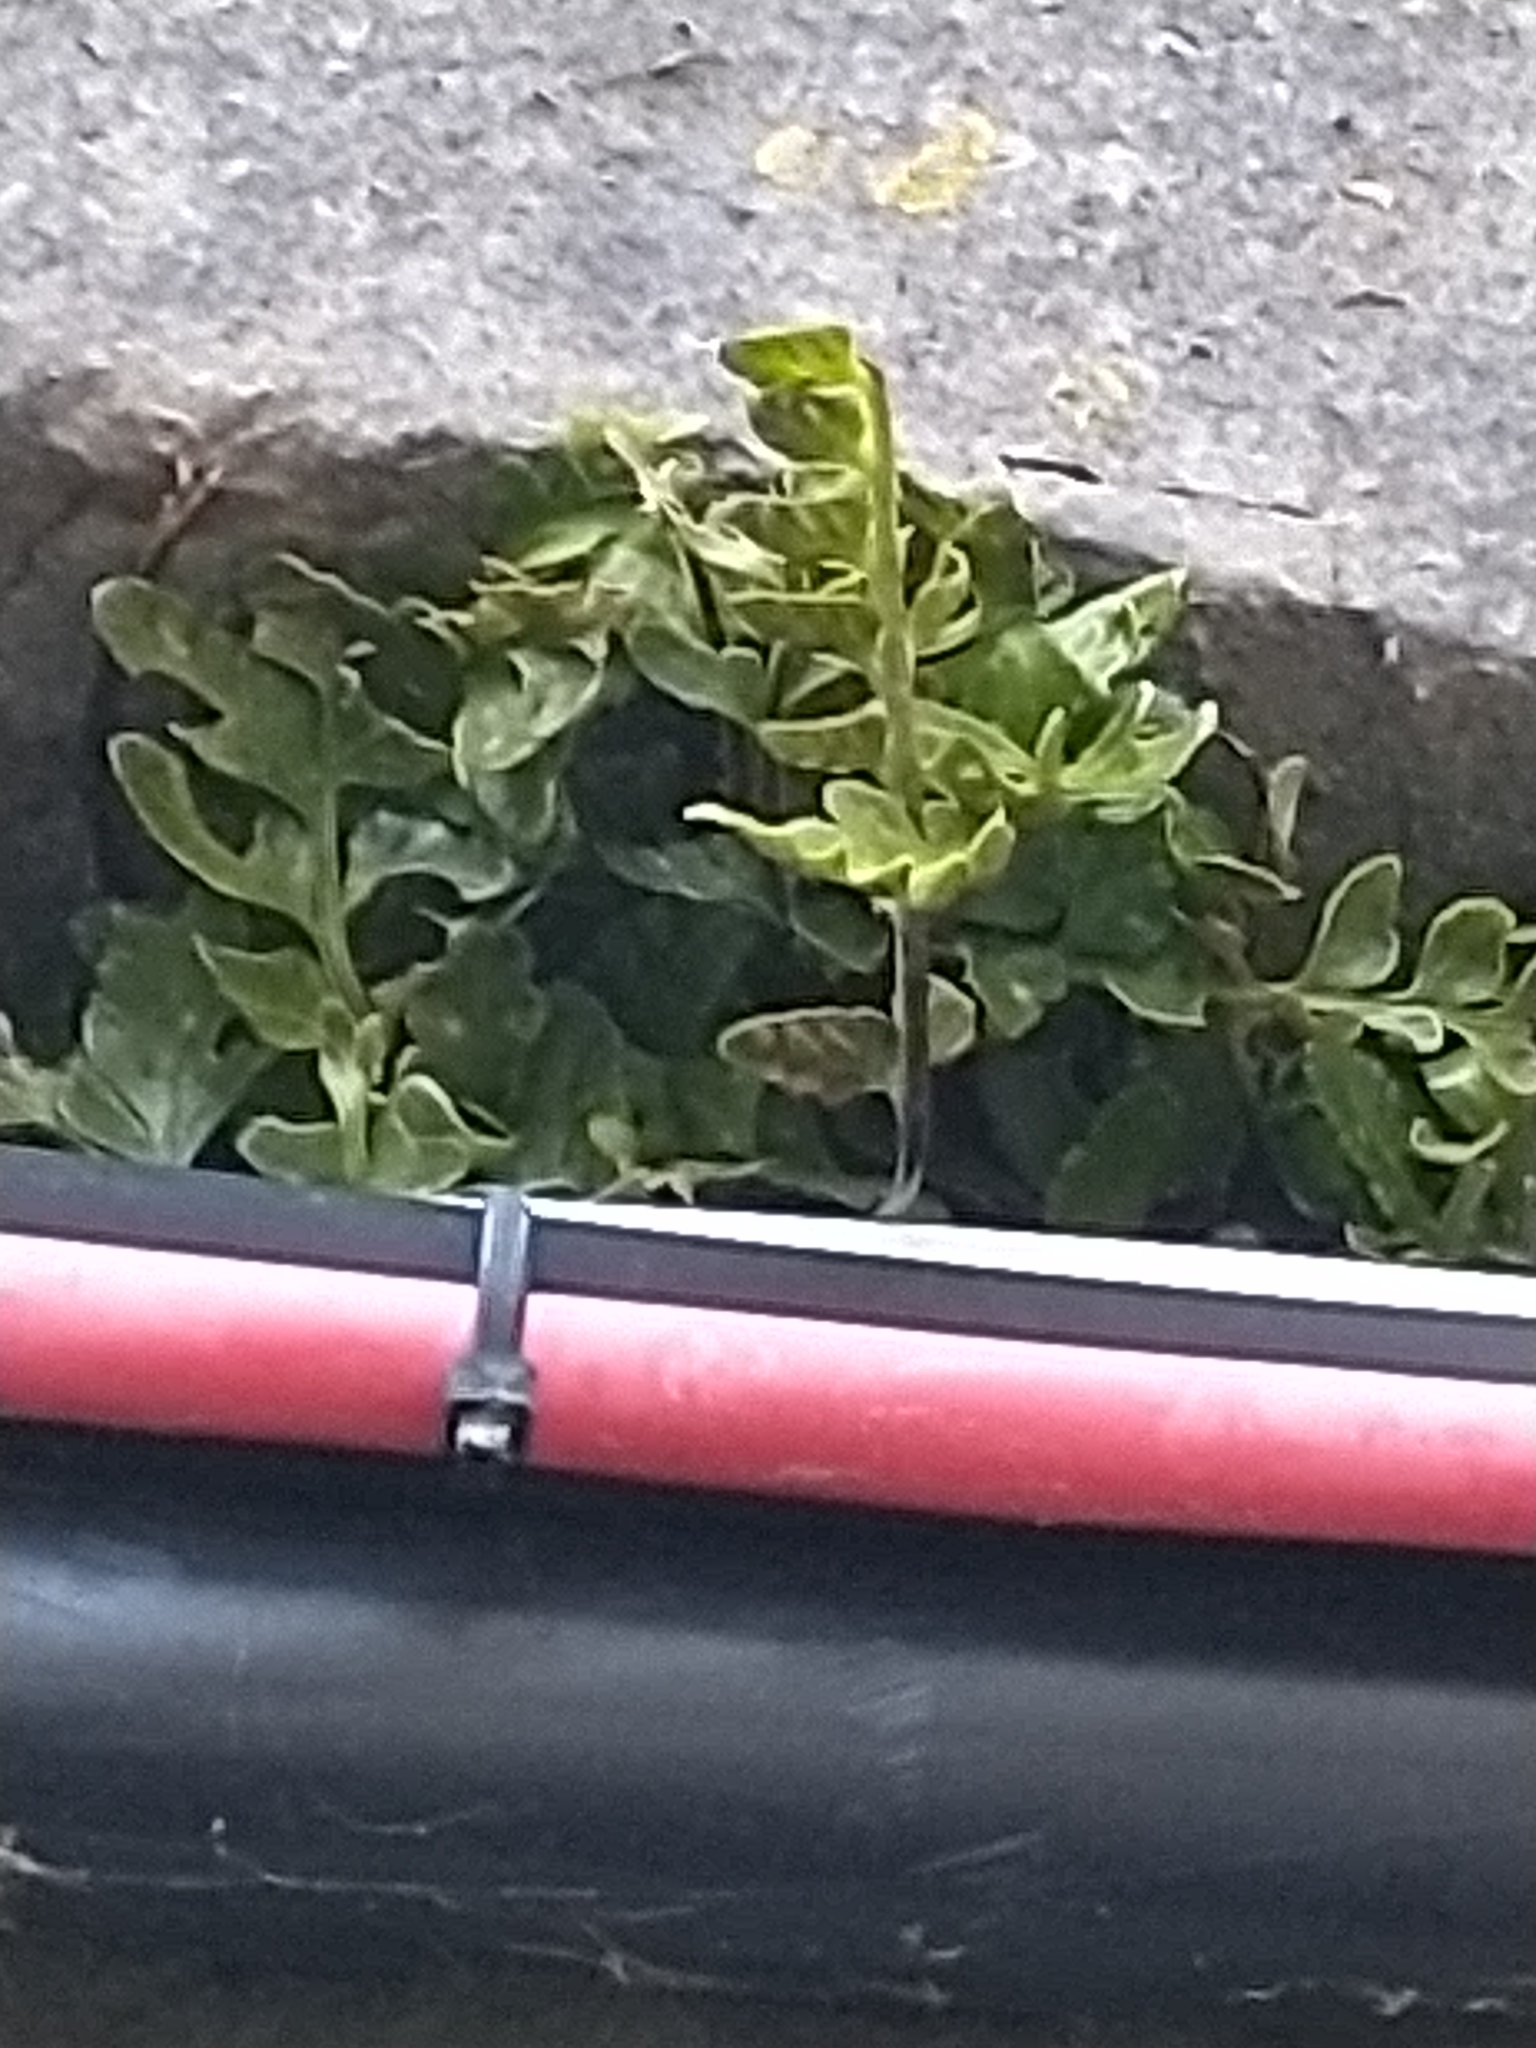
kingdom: Plantae
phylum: Tracheophyta
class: Polypodiopsida
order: Polypodiales
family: Aspleniaceae
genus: Asplenium
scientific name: Asplenium marinum
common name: Sea spleenwort
